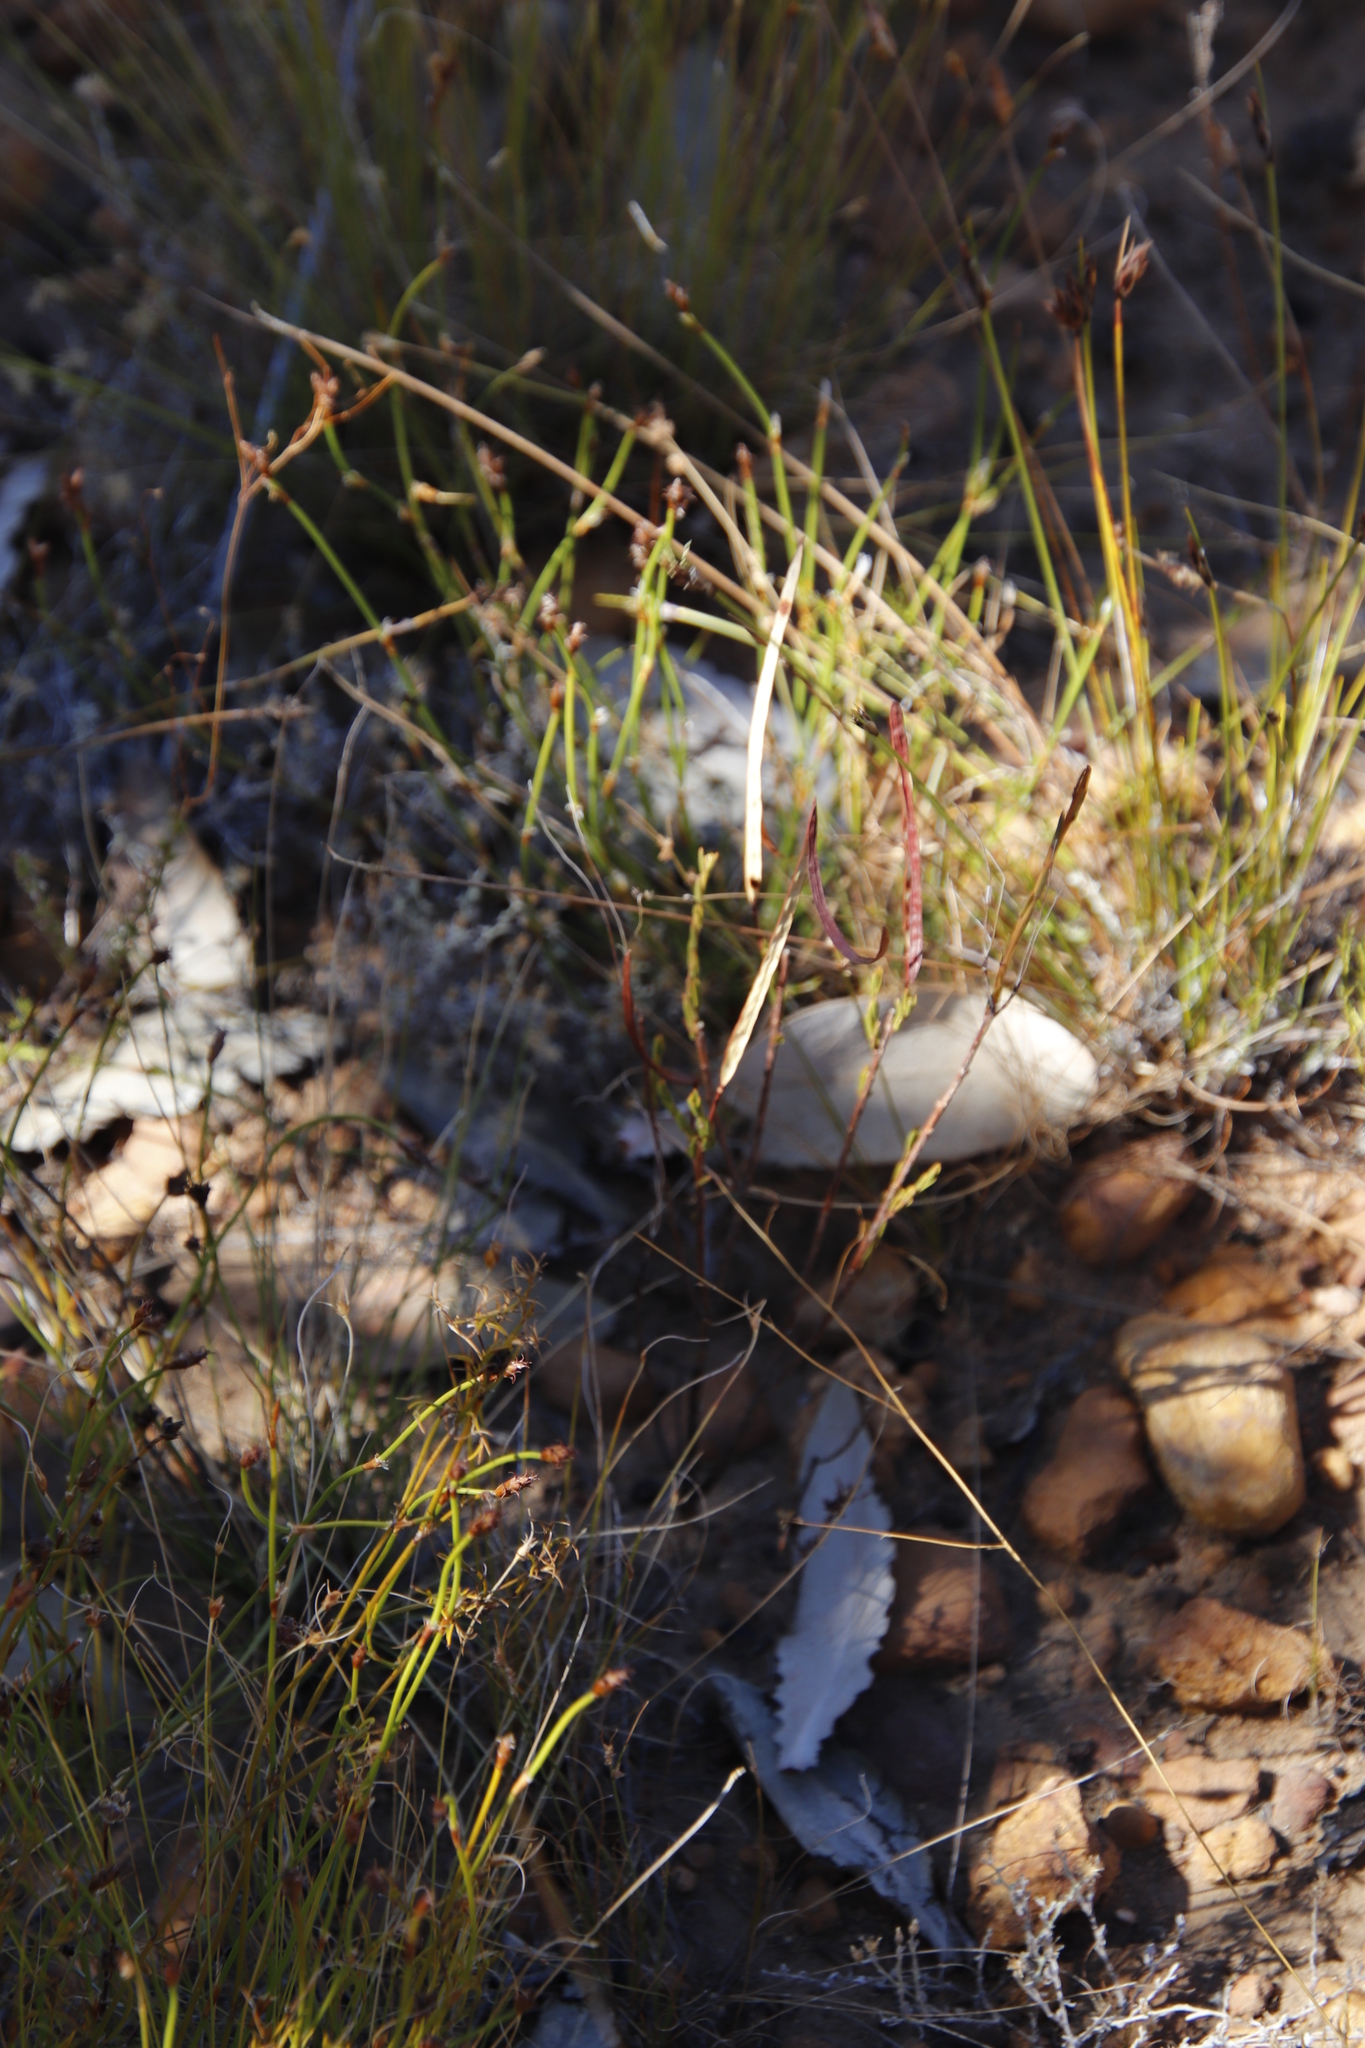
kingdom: Plantae
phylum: Tracheophyta
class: Magnoliopsida
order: Brassicales
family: Brassicaceae
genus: Heliophila
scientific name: Heliophila scoparia
